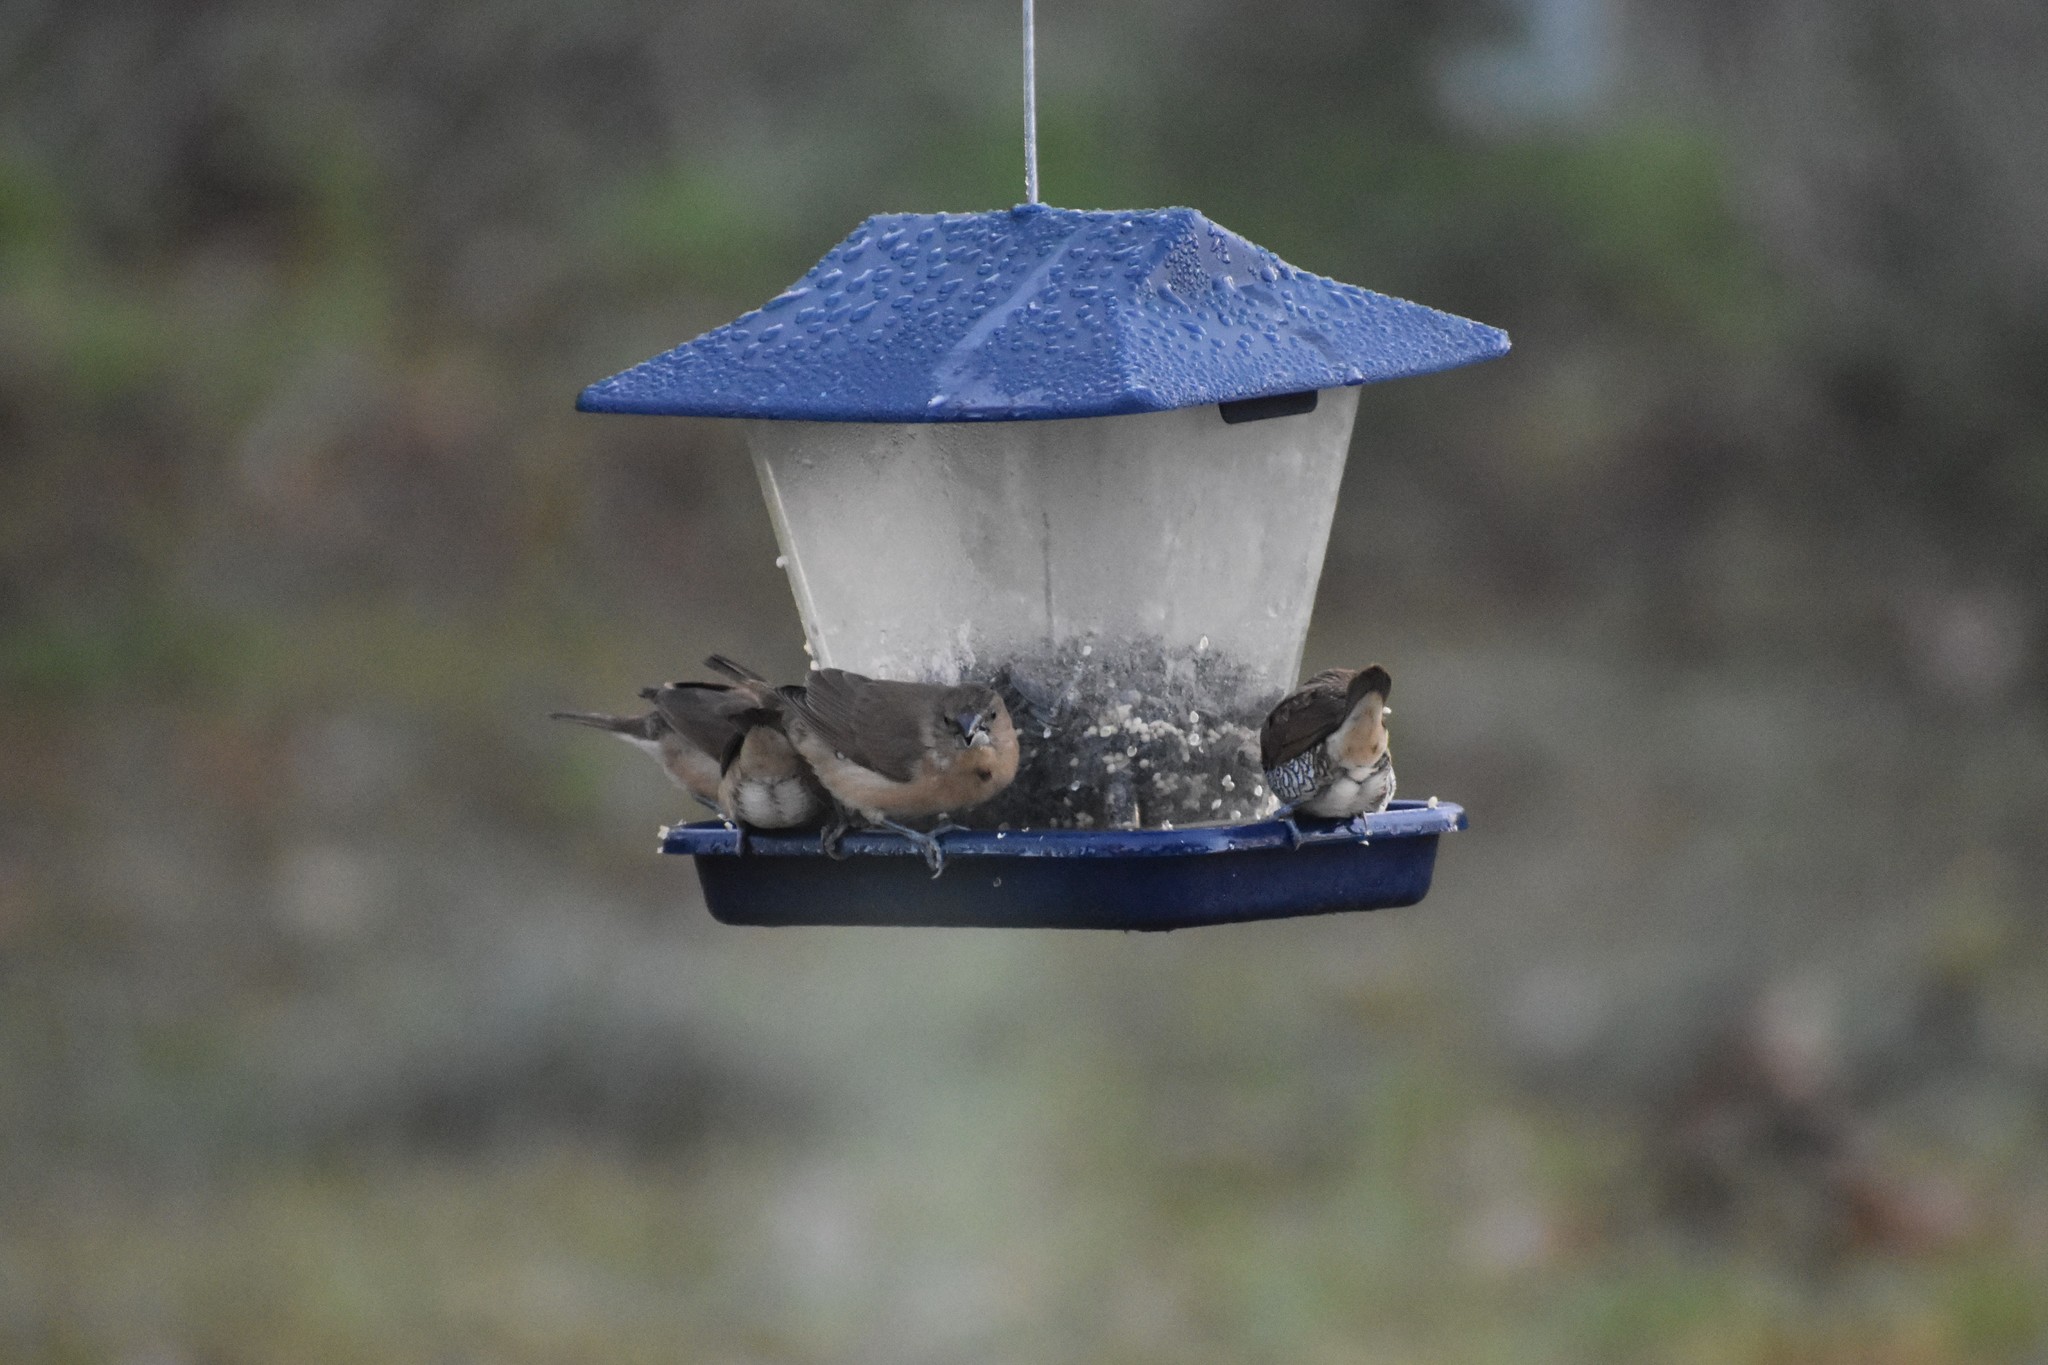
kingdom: Animalia
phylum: Chordata
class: Aves
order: Passeriformes
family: Estrildidae
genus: Lonchura
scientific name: Lonchura punctulata
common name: Scaly-breasted munia
